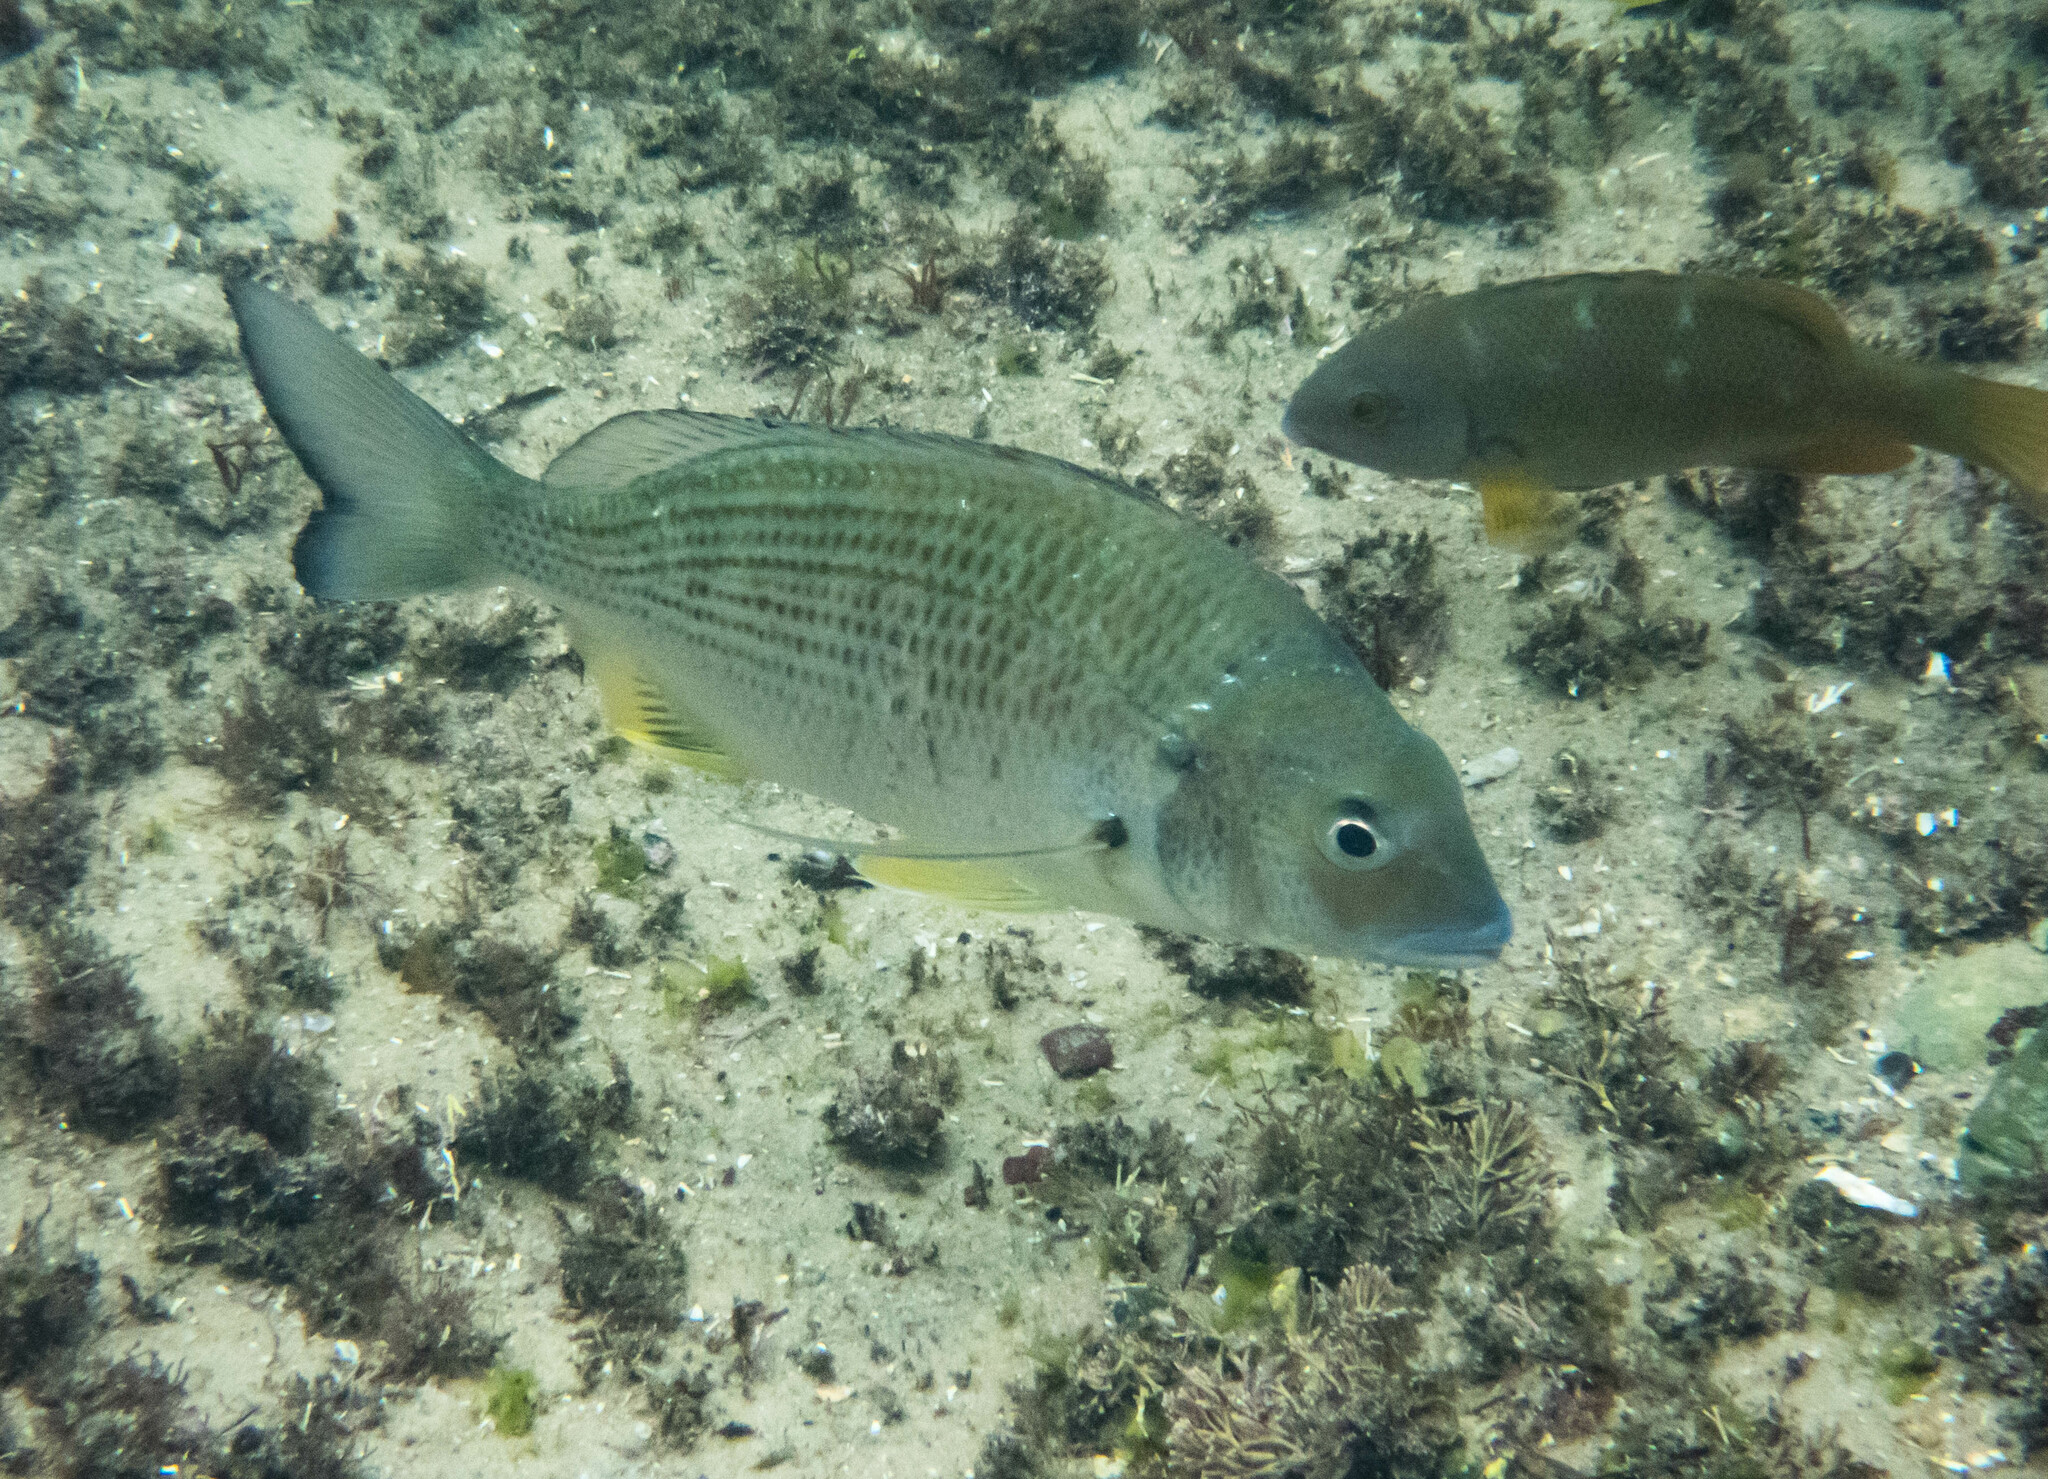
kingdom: Animalia
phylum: Chordata
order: Perciformes
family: Sparidae
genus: Acanthopagrus
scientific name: Acanthopagrus australis
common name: Surf bream
